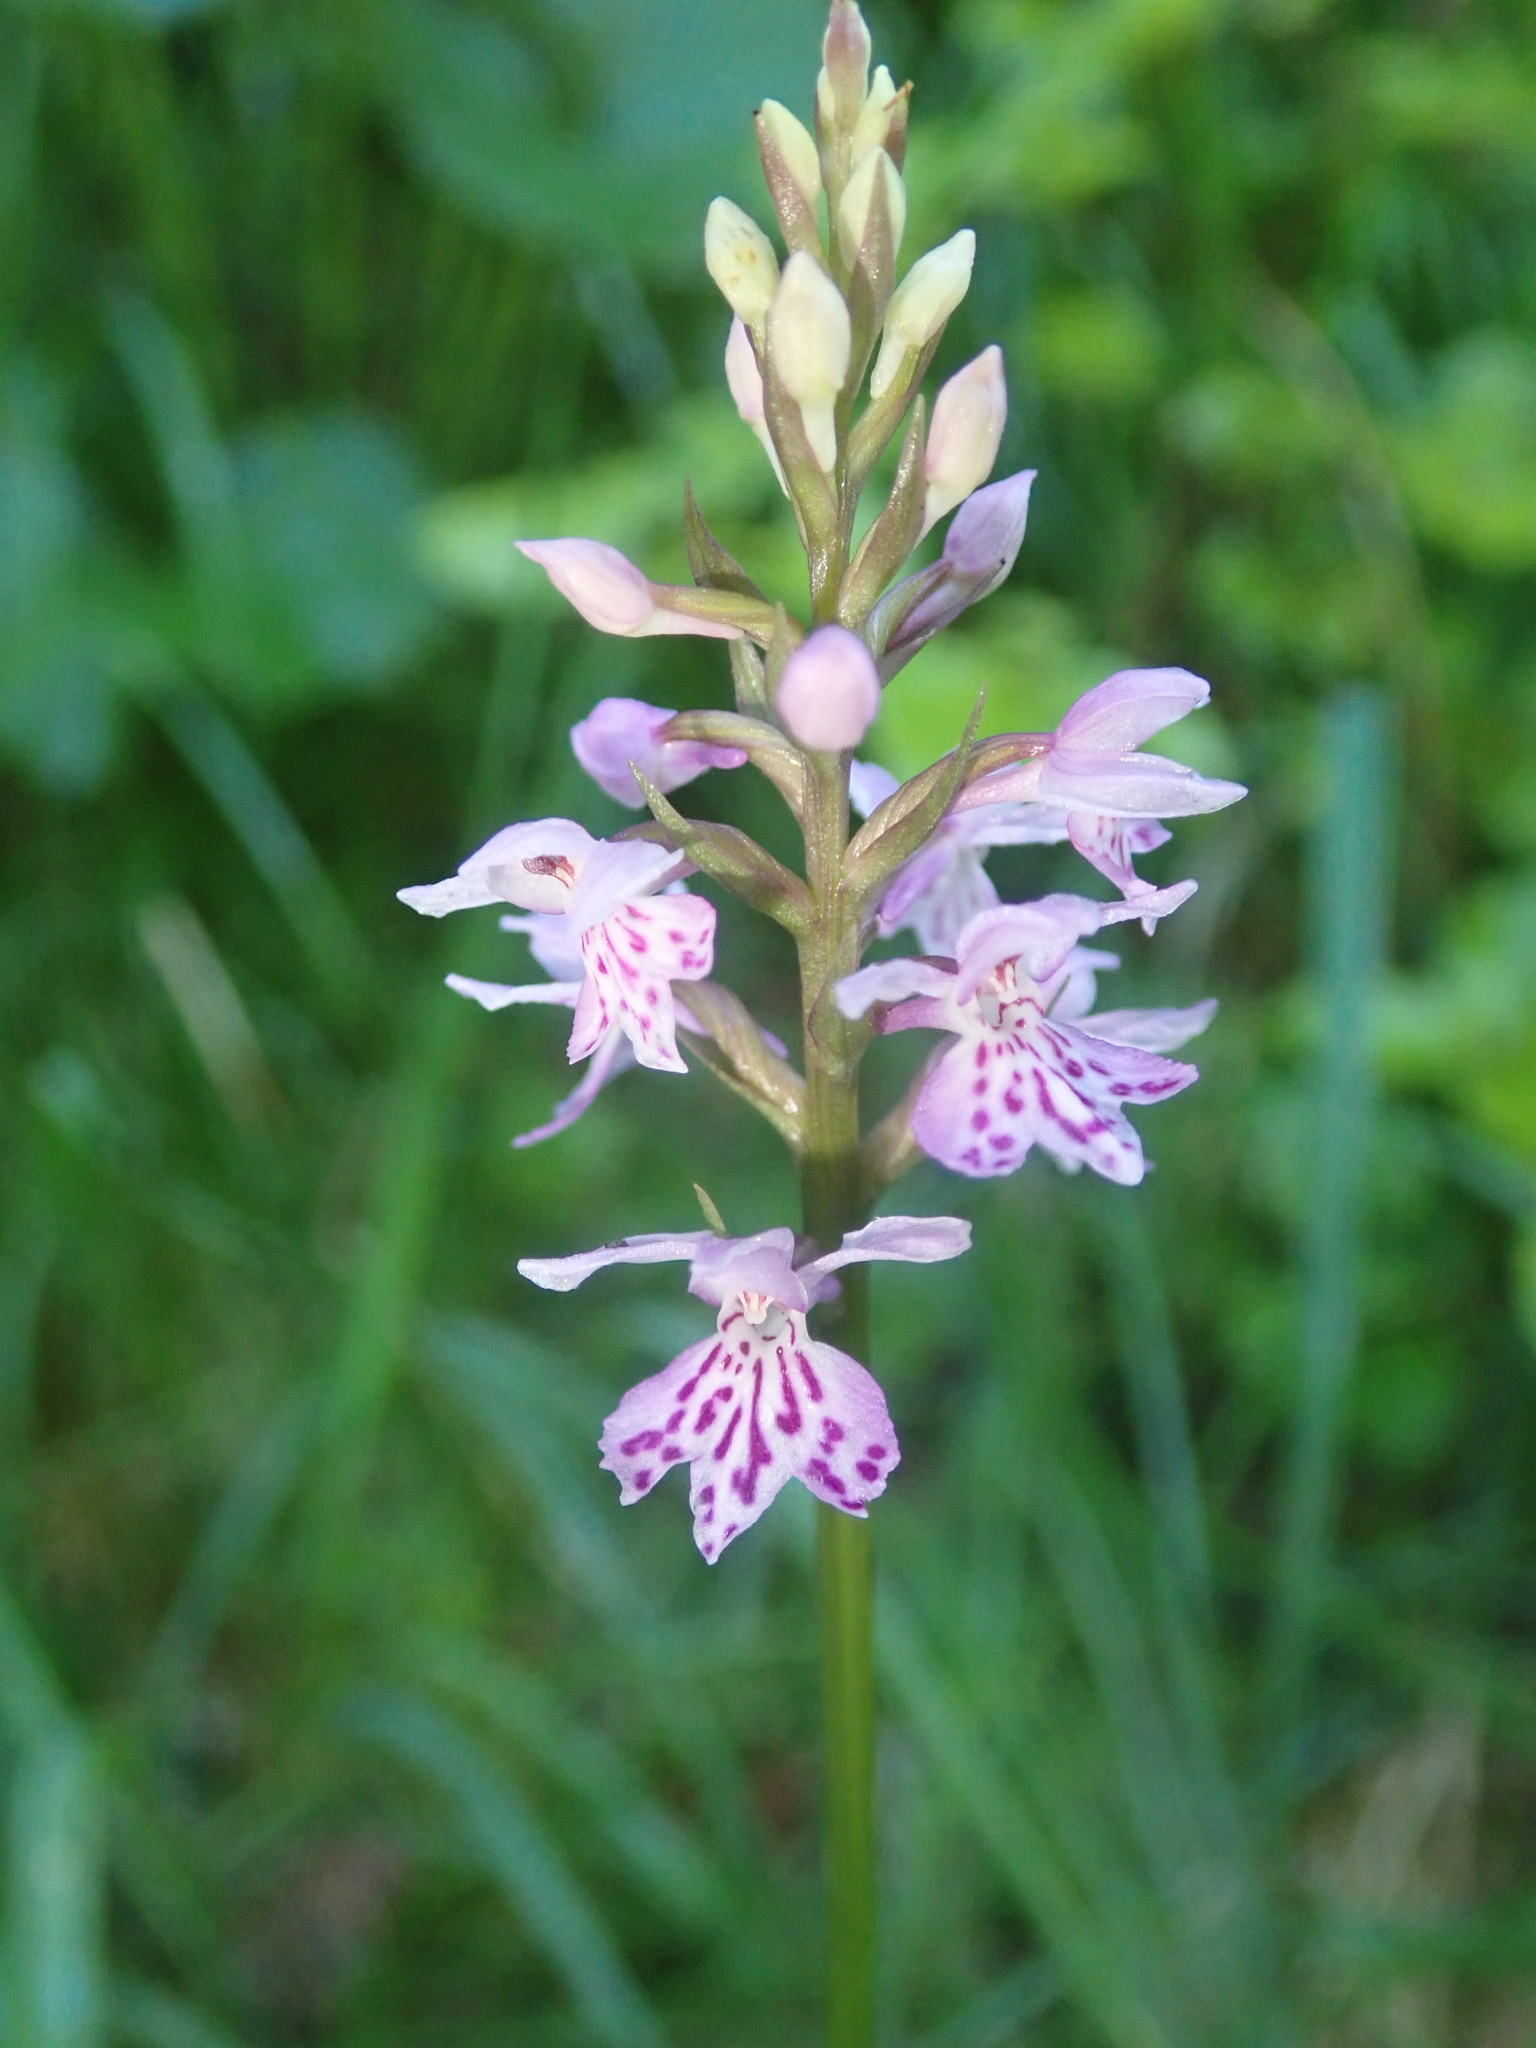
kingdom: Plantae
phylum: Tracheophyta
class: Liliopsida
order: Asparagales
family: Orchidaceae
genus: Dactylorhiza
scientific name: Dactylorhiza maculata
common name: Heath spotted-orchid
